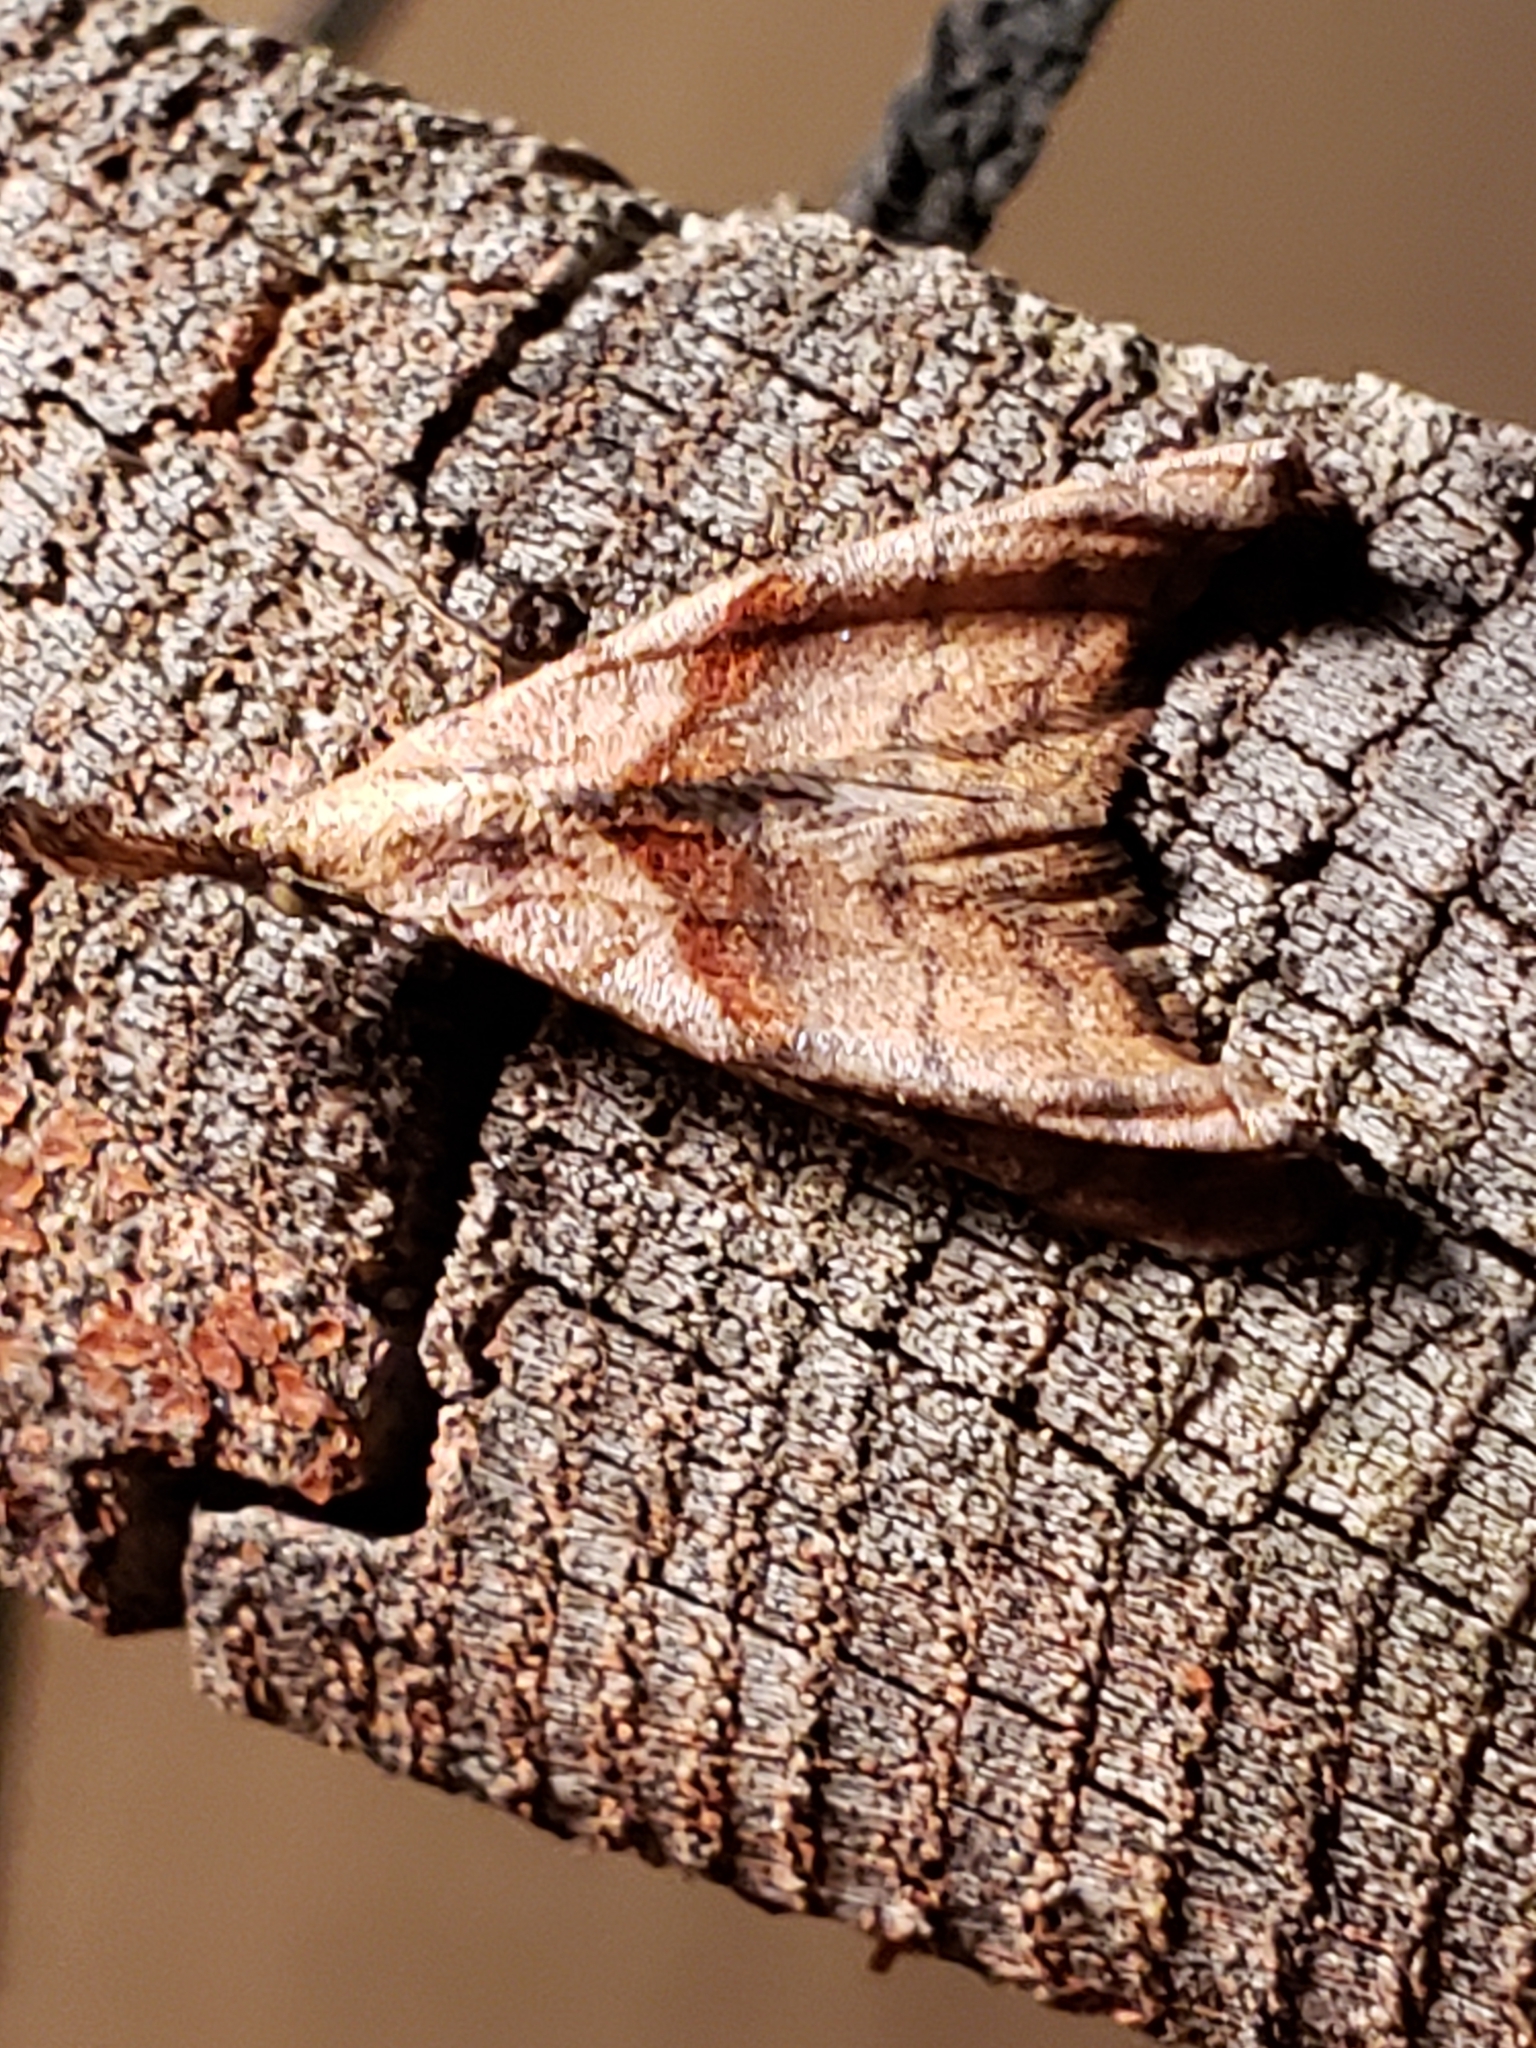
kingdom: Animalia
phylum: Arthropoda
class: Insecta
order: Lepidoptera
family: Erebidae
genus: Palthis
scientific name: Palthis angulalis
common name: Dark-spotted palthis moth
